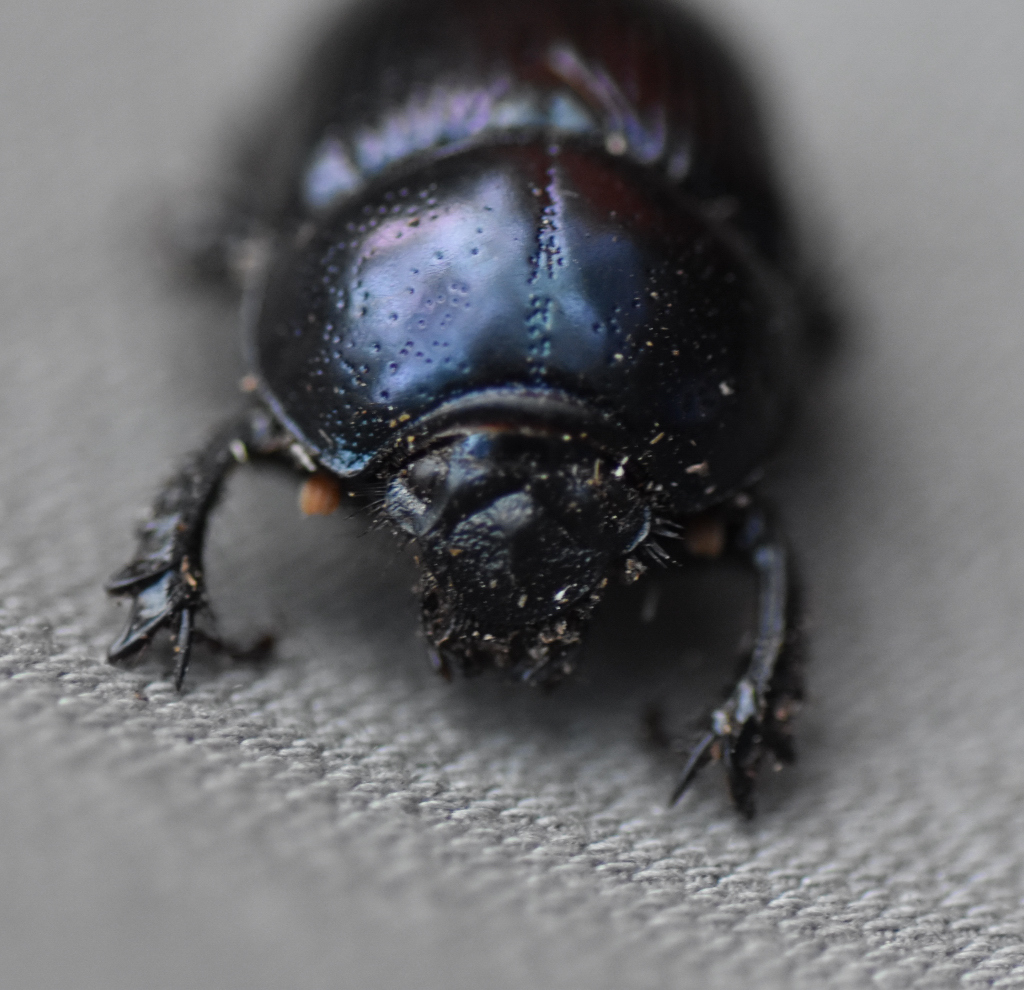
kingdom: Animalia
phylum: Arthropoda
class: Insecta
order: Coleoptera
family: Geotrupidae
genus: Anoplotrupes
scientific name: Anoplotrupes balyi
